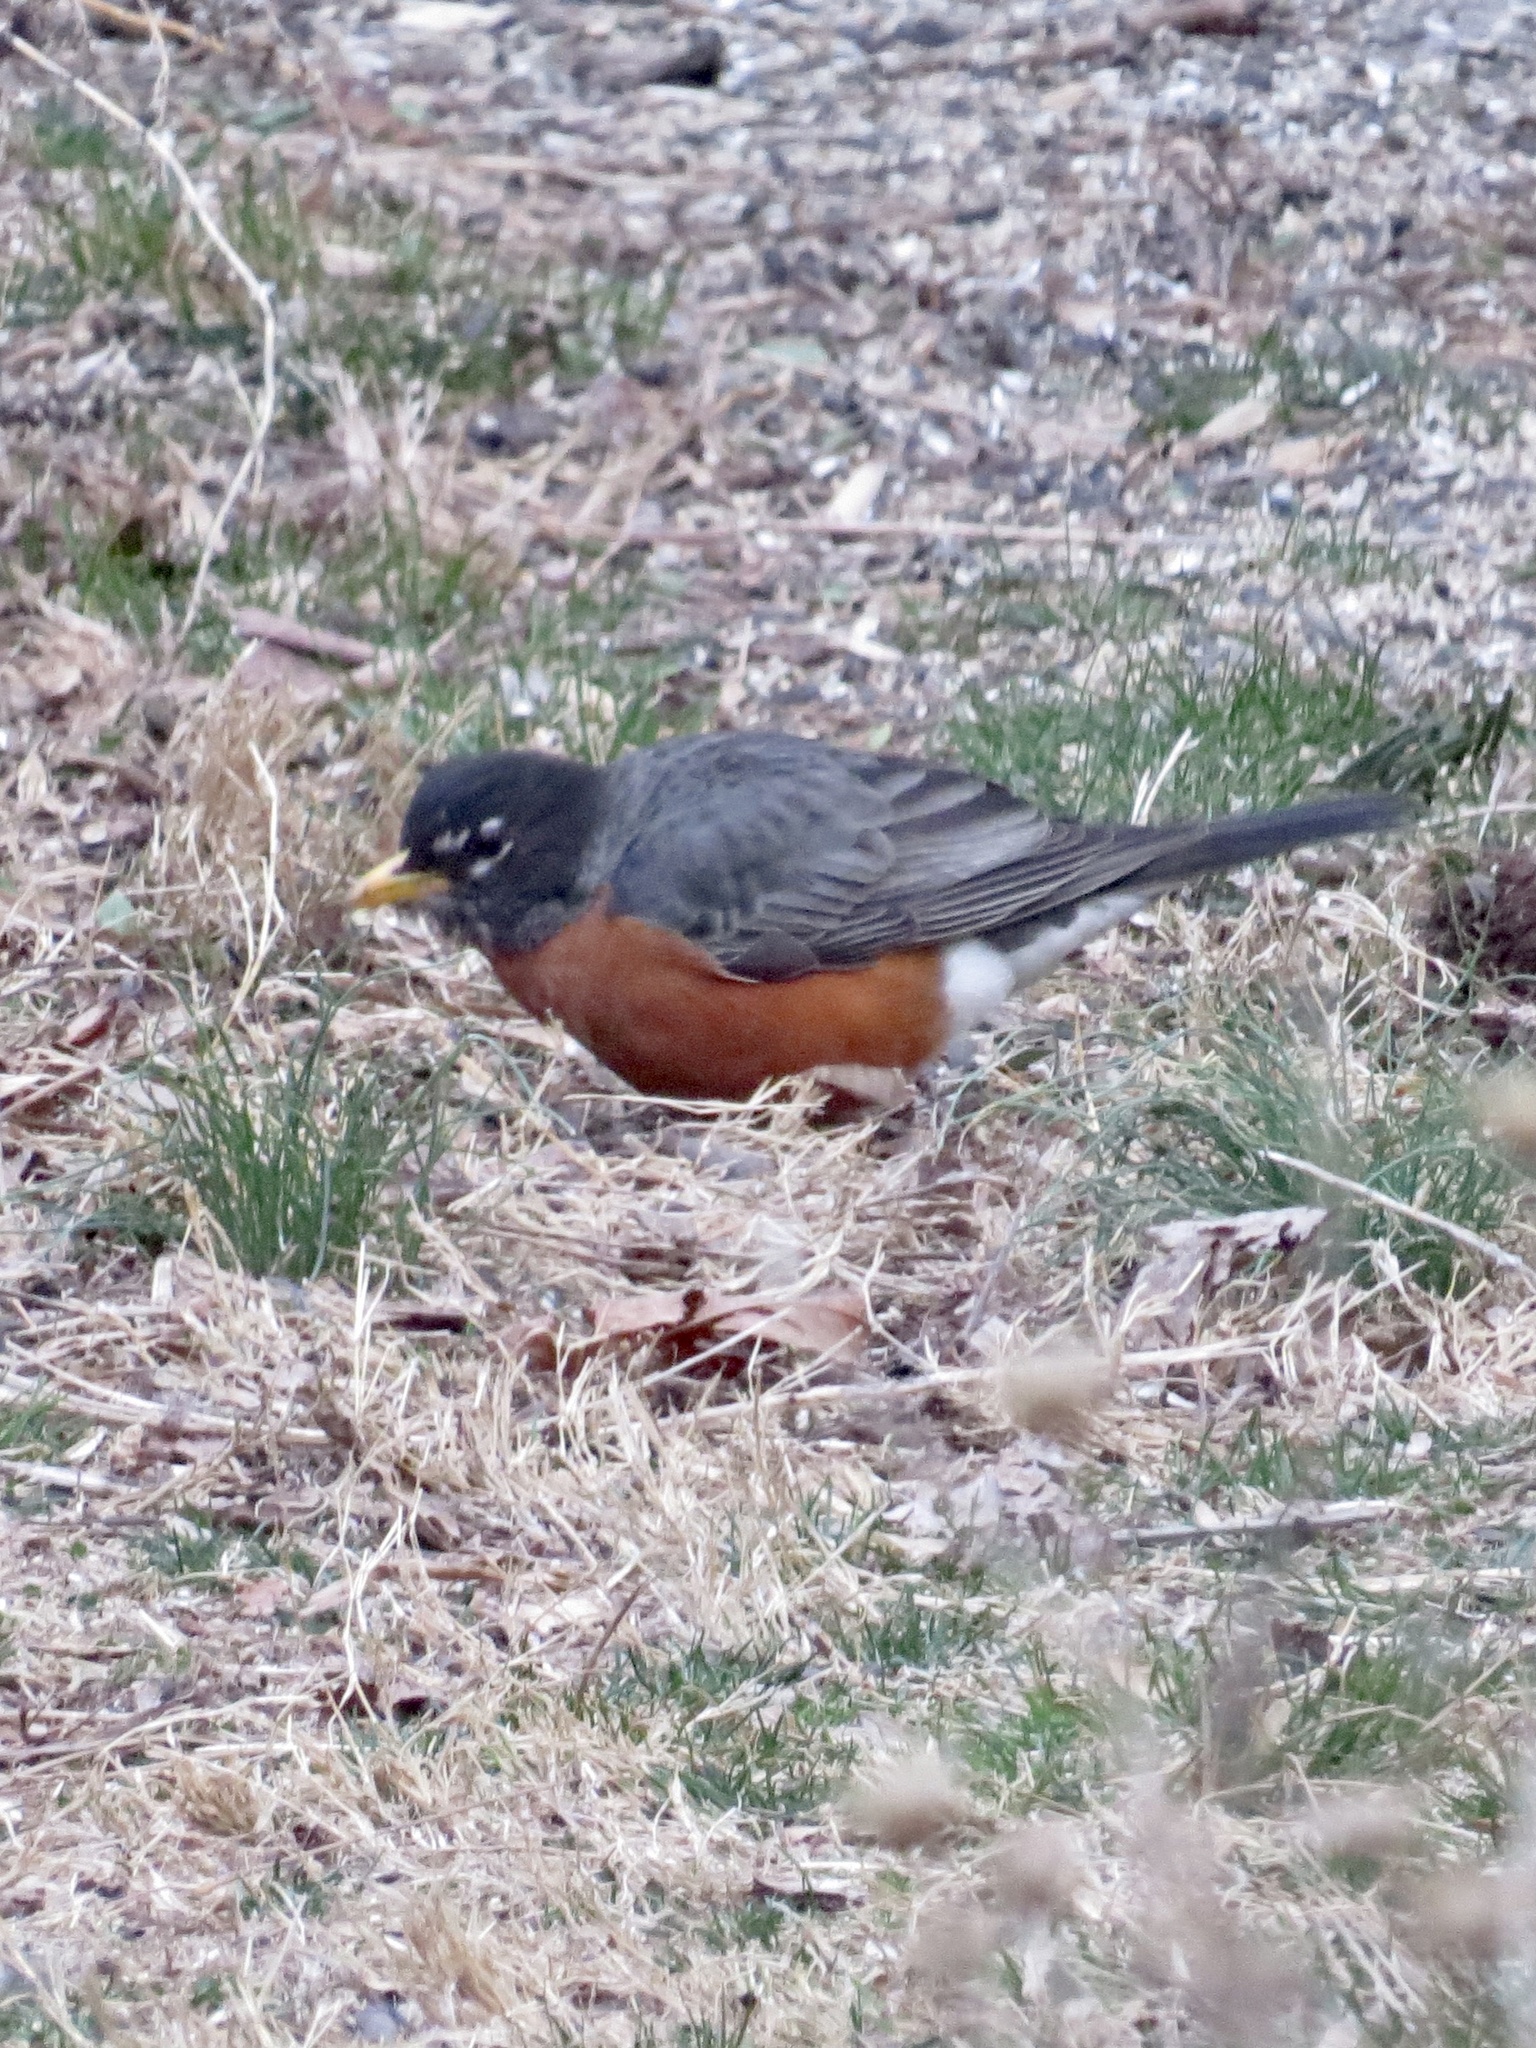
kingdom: Animalia
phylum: Chordata
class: Aves
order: Passeriformes
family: Turdidae
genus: Turdus
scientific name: Turdus migratorius
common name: American robin
